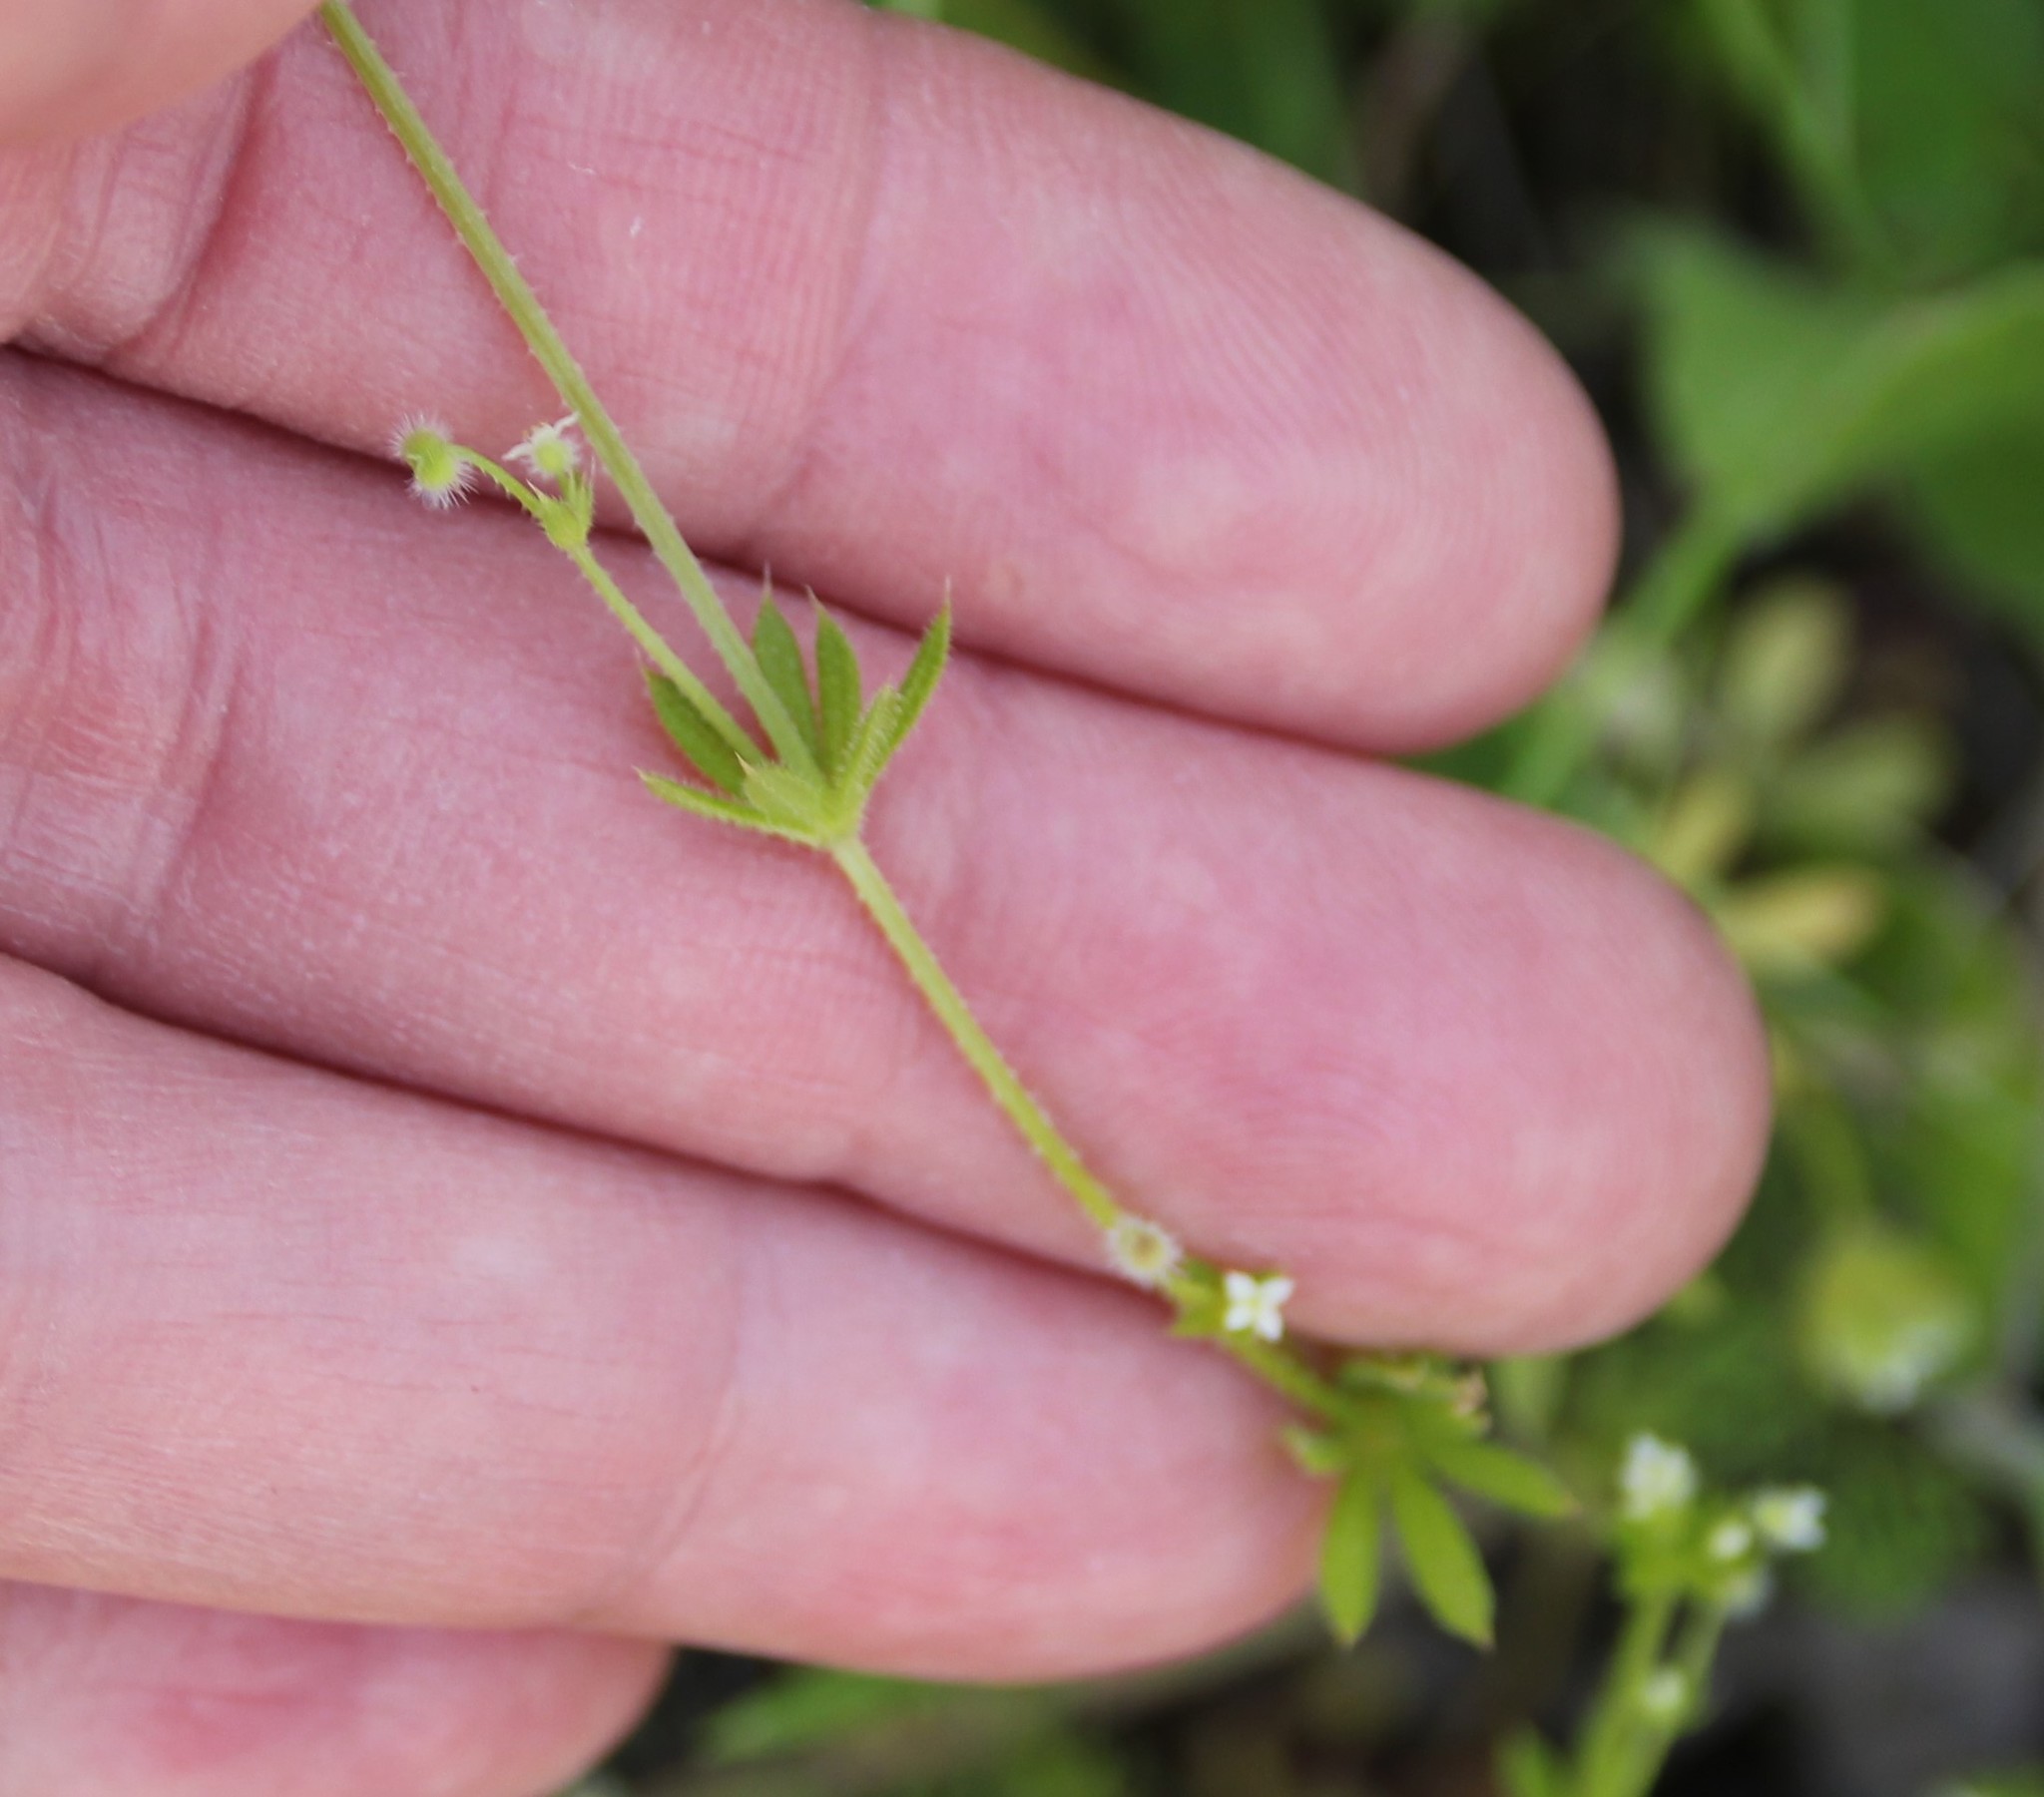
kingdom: Plantae
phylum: Tracheophyta
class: Magnoliopsida
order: Gentianales
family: Rubiaceae
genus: Galium
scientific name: Galium aparine
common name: Cleavers
